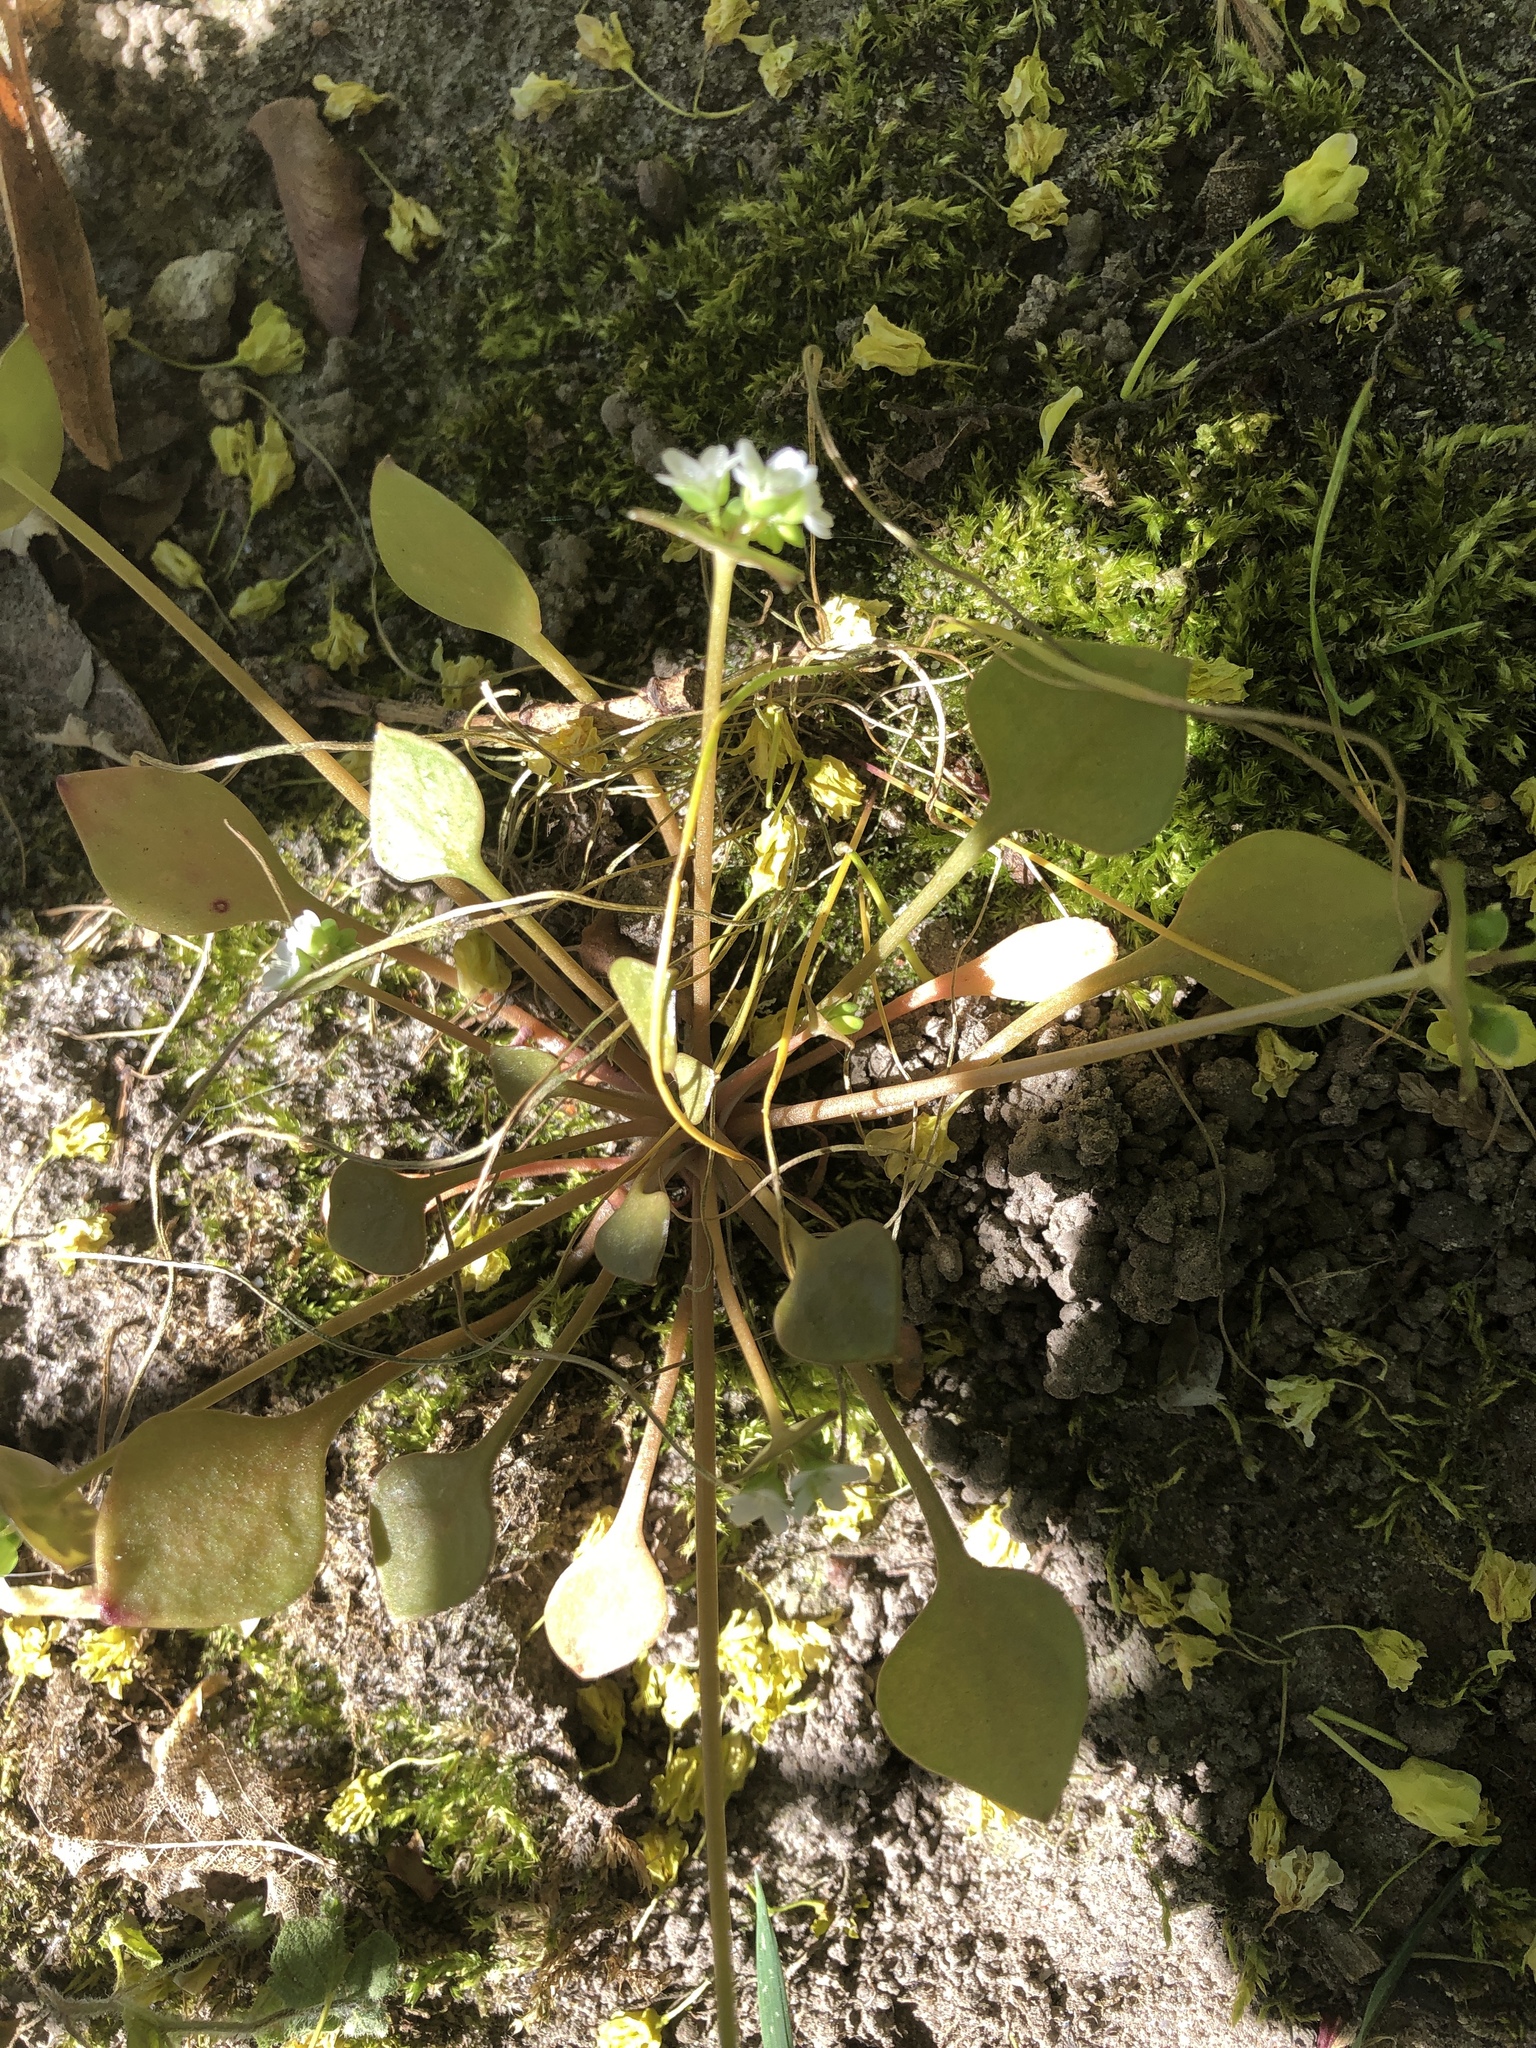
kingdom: Plantae
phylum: Tracheophyta
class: Magnoliopsida
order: Caryophyllales
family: Montiaceae
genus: Claytonia
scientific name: Claytonia perfoliata
